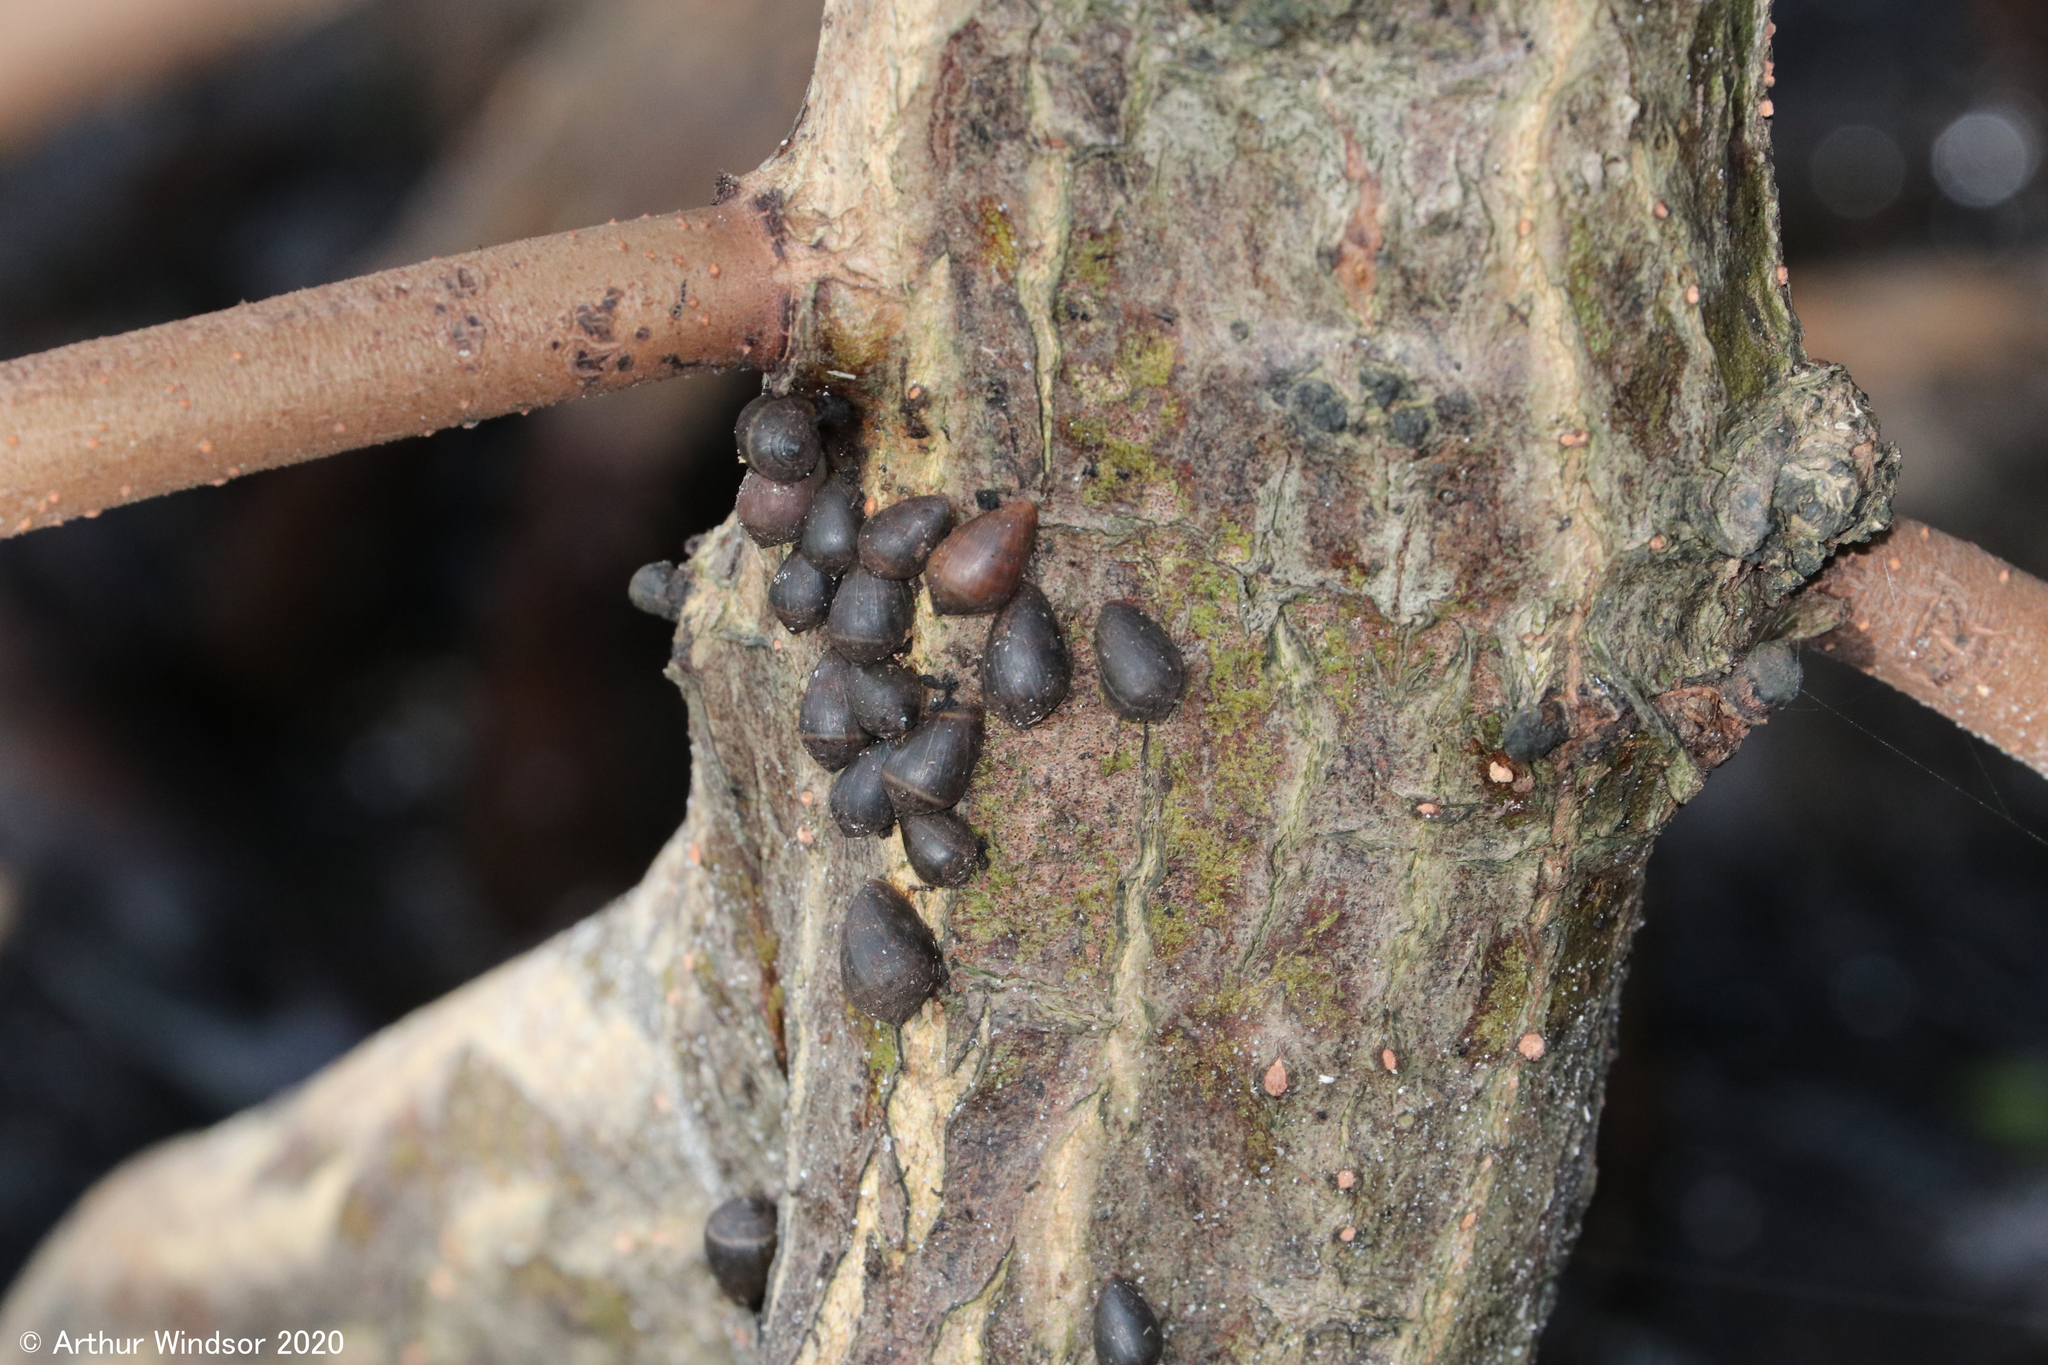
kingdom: Animalia
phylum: Mollusca
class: Gastropoda
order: Ellobiida
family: Ellobiidae
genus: Melampus
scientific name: Melampus coffea
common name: Coffee bean snail
